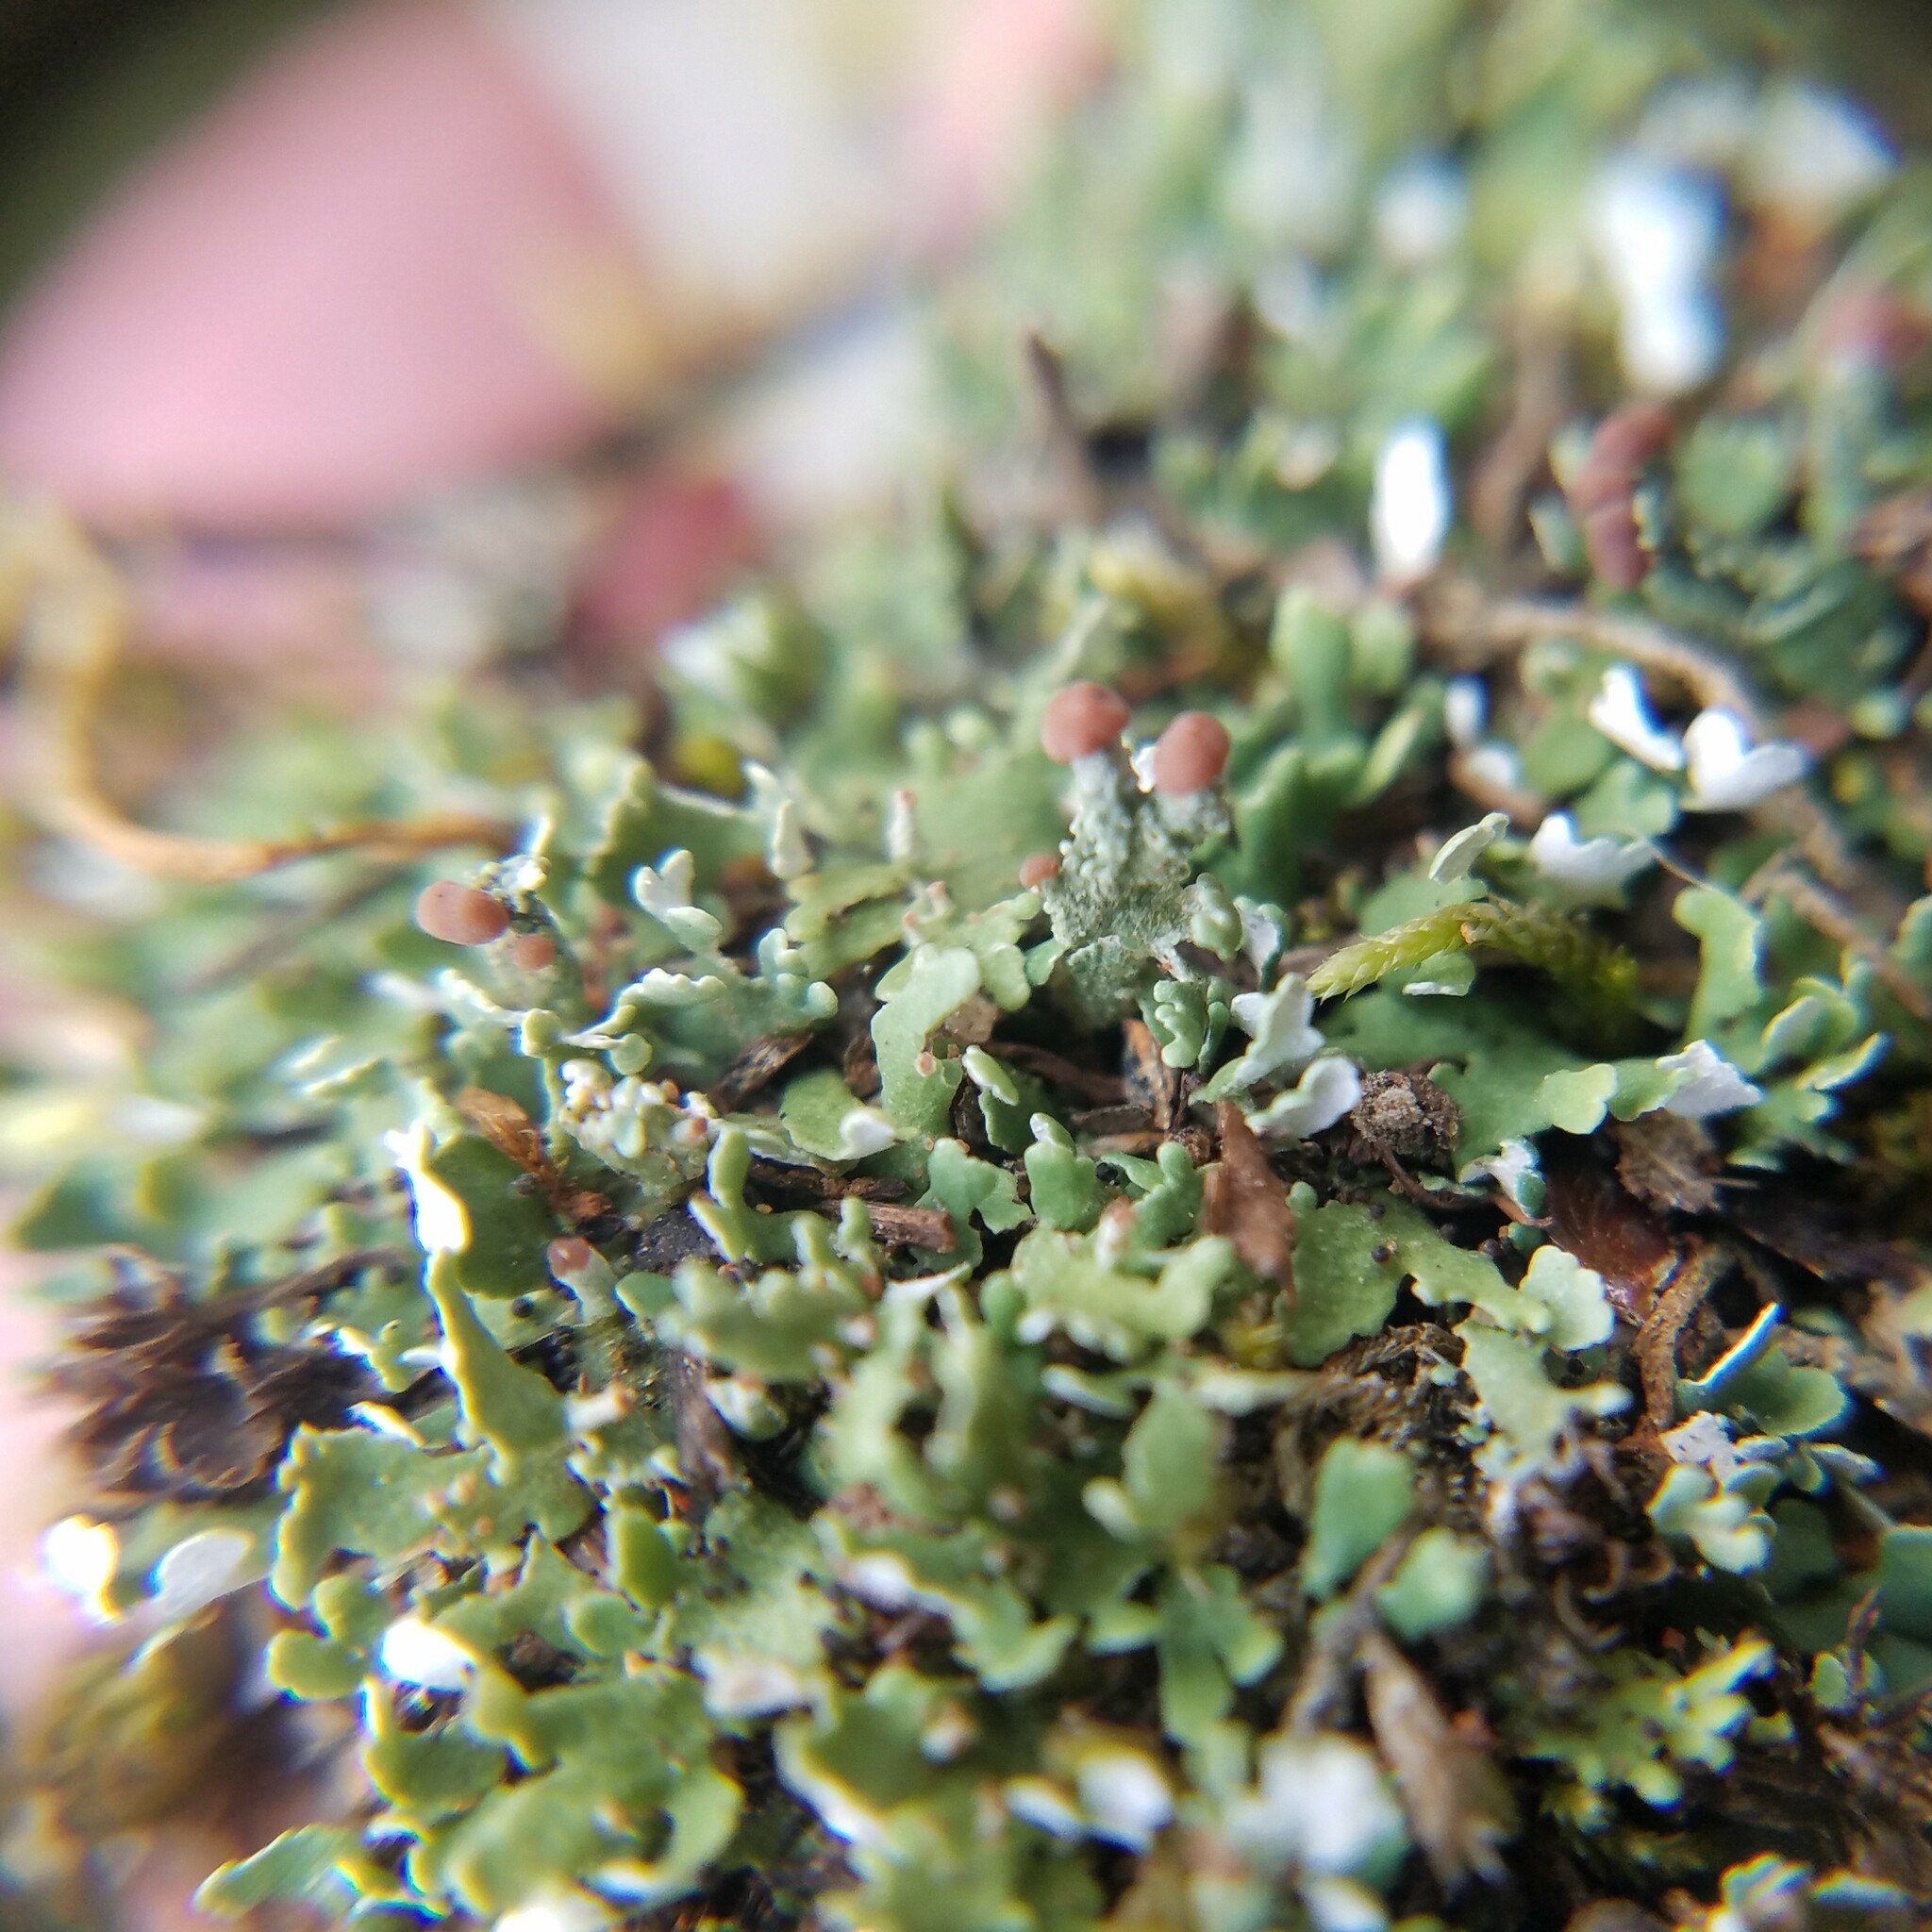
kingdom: Fungi
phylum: Ascomycota
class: Lecanoromycetes
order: Lecanorales
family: Cladoniaceae
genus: Cladonia
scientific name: Cladonia subcariosa
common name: Peg lichen
